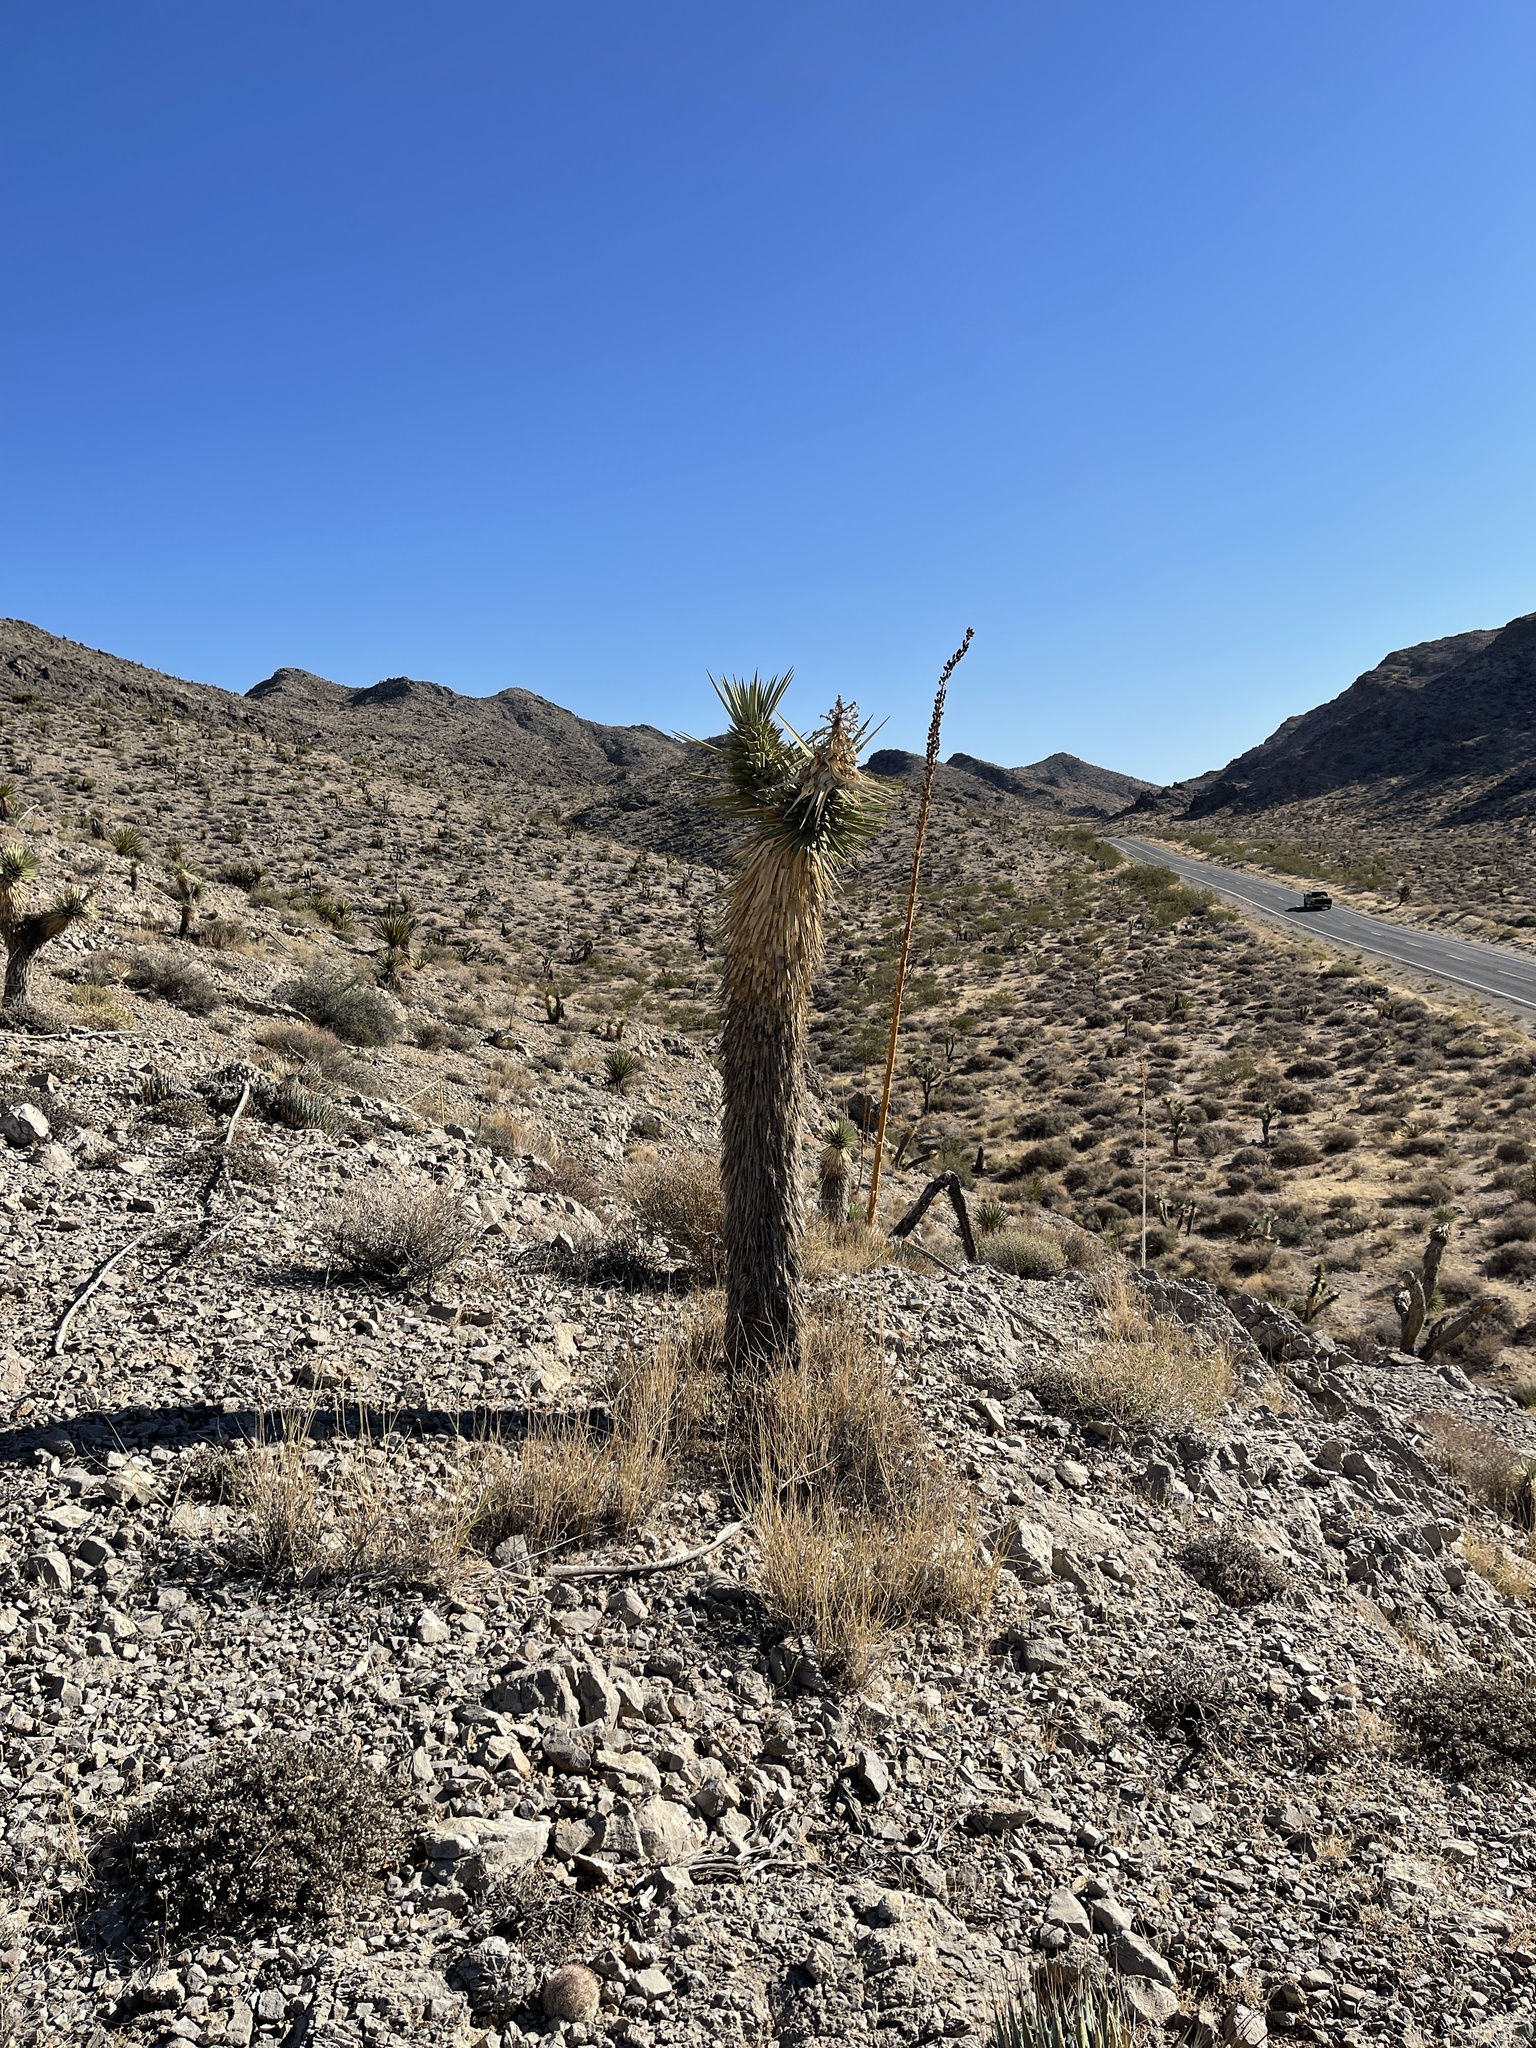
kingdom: Plantae
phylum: Tracheophyta
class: Liliopsida
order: Asparagales
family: Asparagaceae
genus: Yucca
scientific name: Yucca brevifolia
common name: Joshua tree
